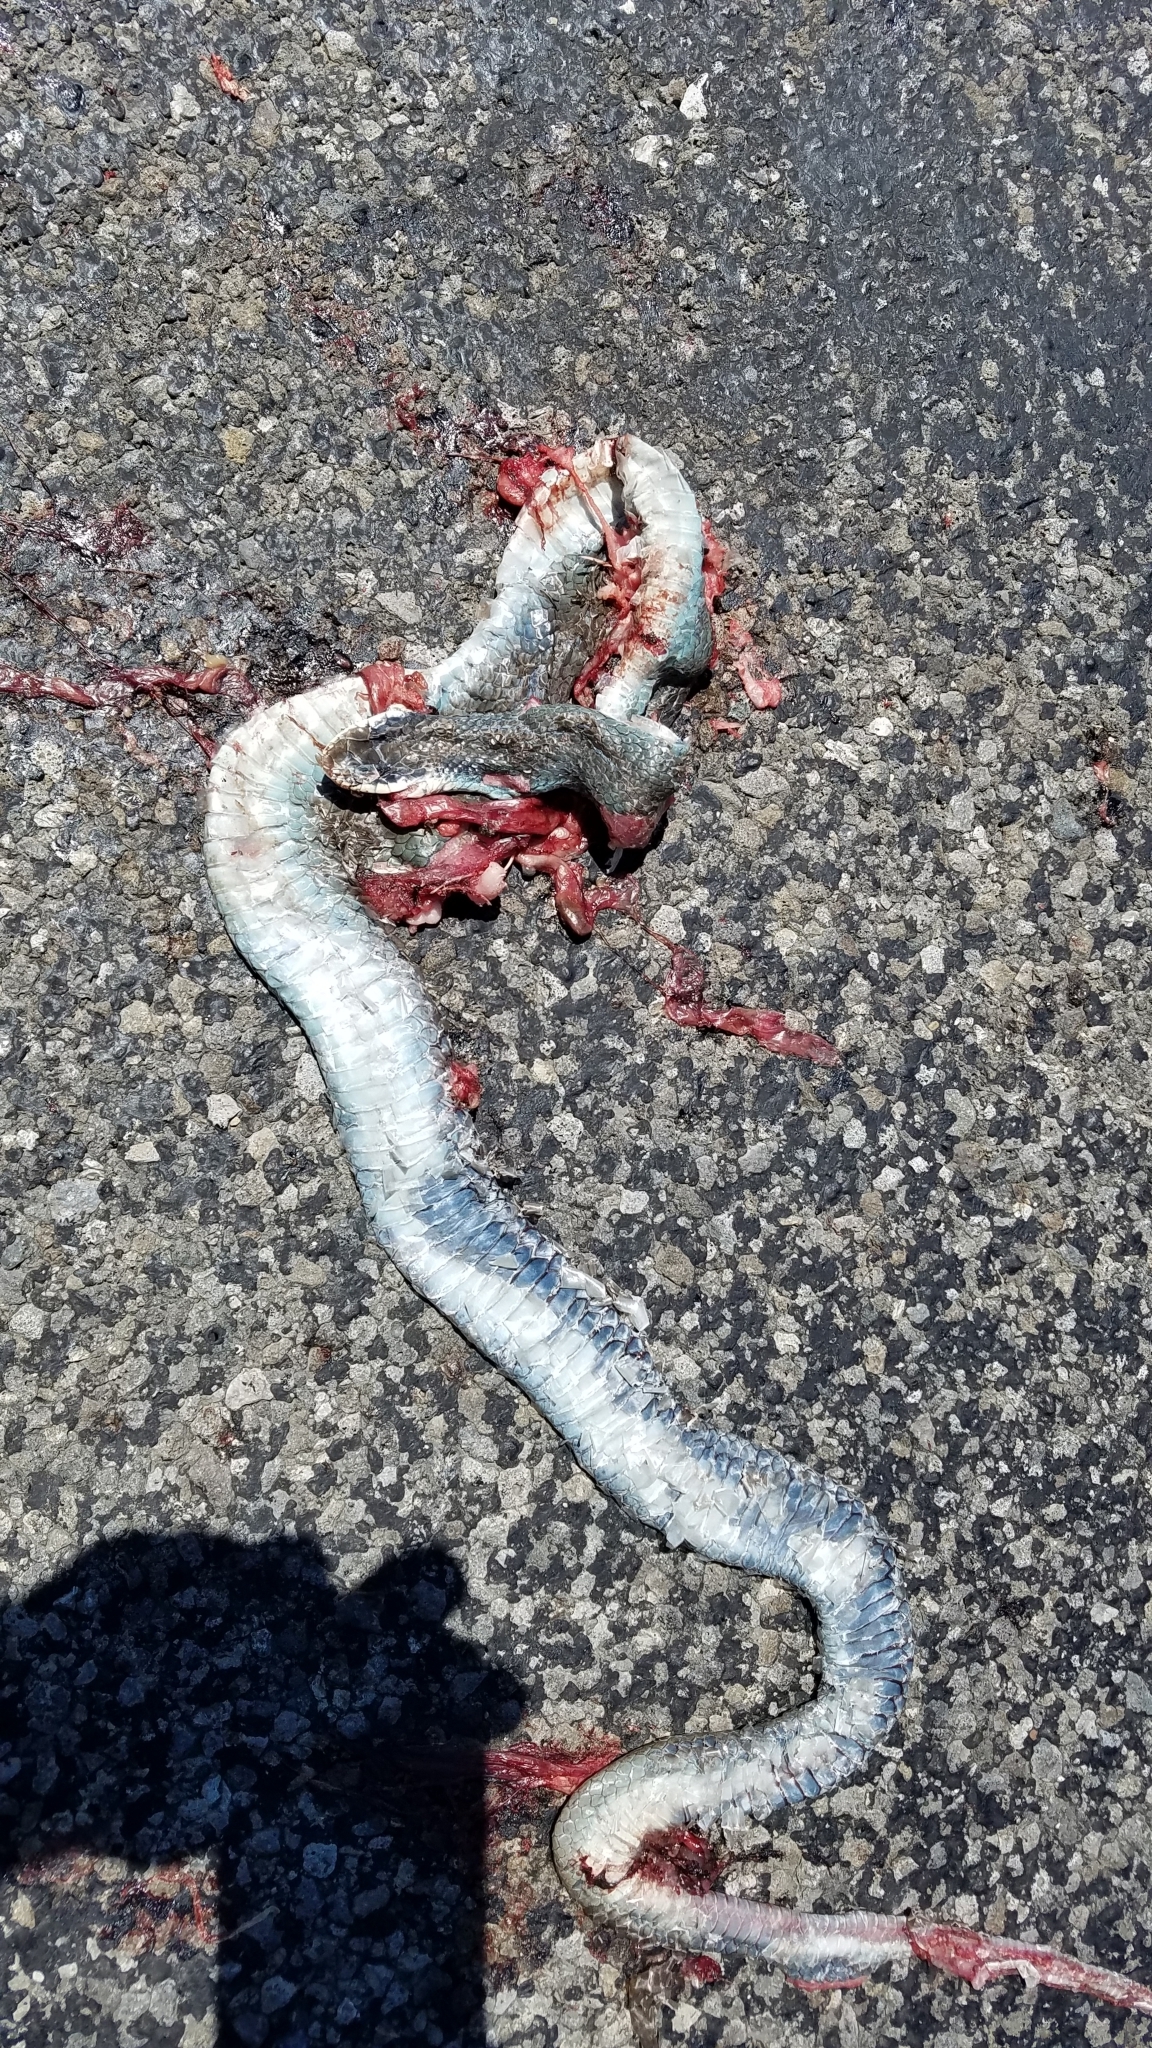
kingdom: Animalia
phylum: Chordata
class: Squamata
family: Colubridae
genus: Coluber
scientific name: Coluber constrictor
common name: Eastern racer
